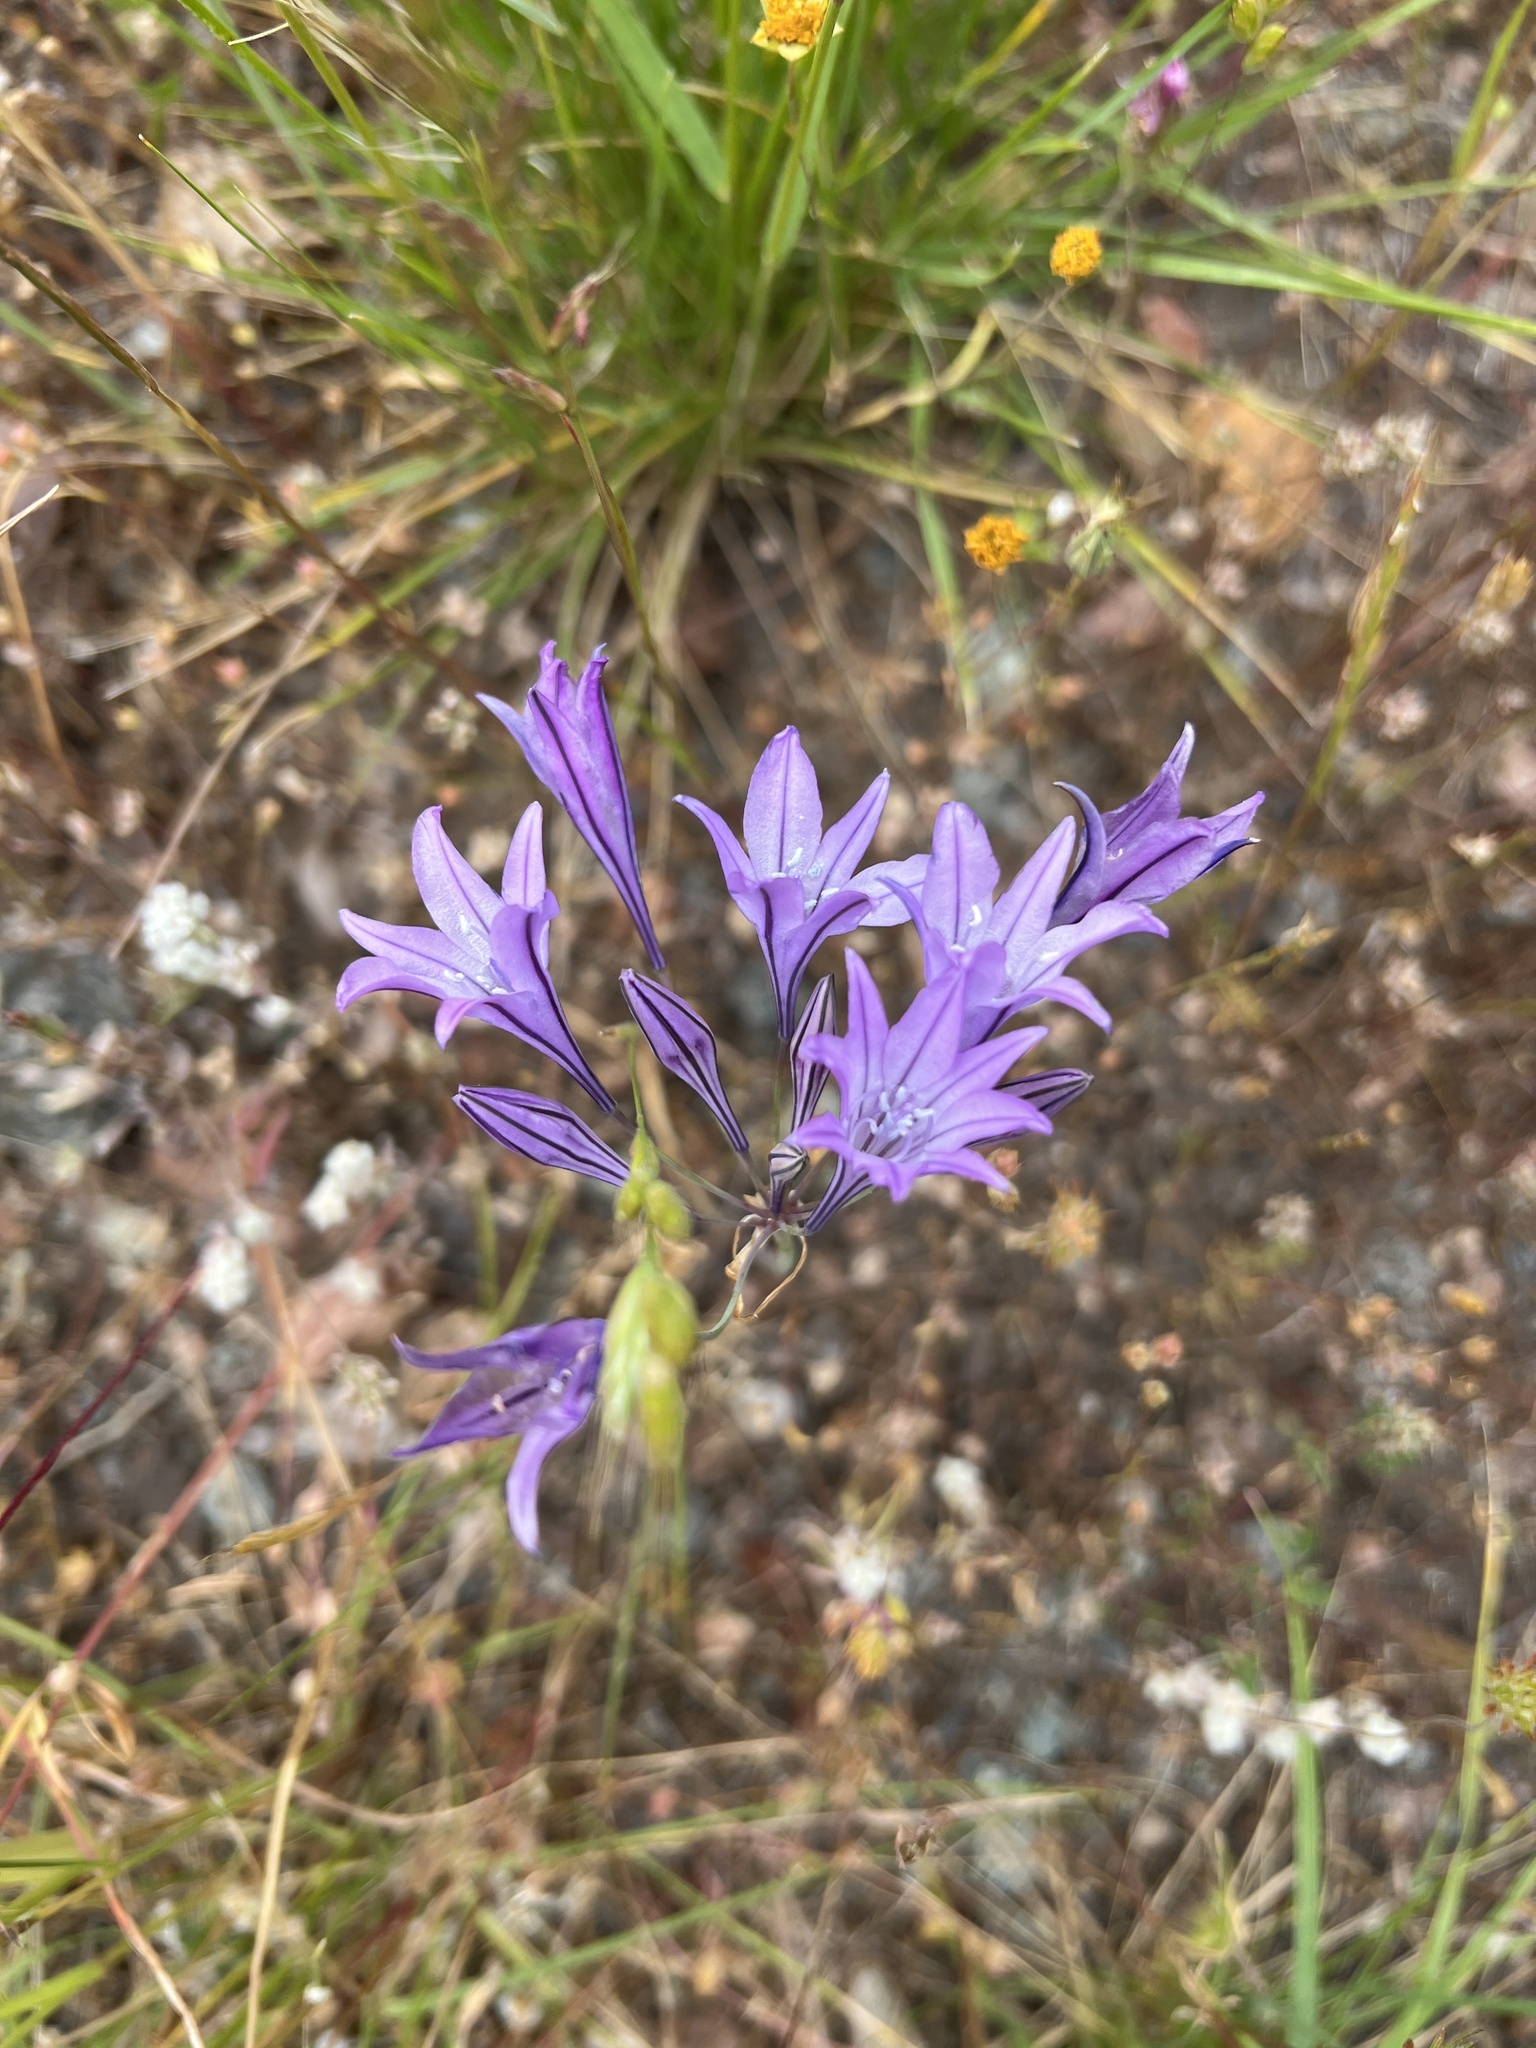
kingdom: Plantae
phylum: Tracheophyta
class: Liliopsida
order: Asparagales
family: Asparagaceae
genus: Triteleia
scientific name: Triteleia laxa
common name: Triplet-lily
